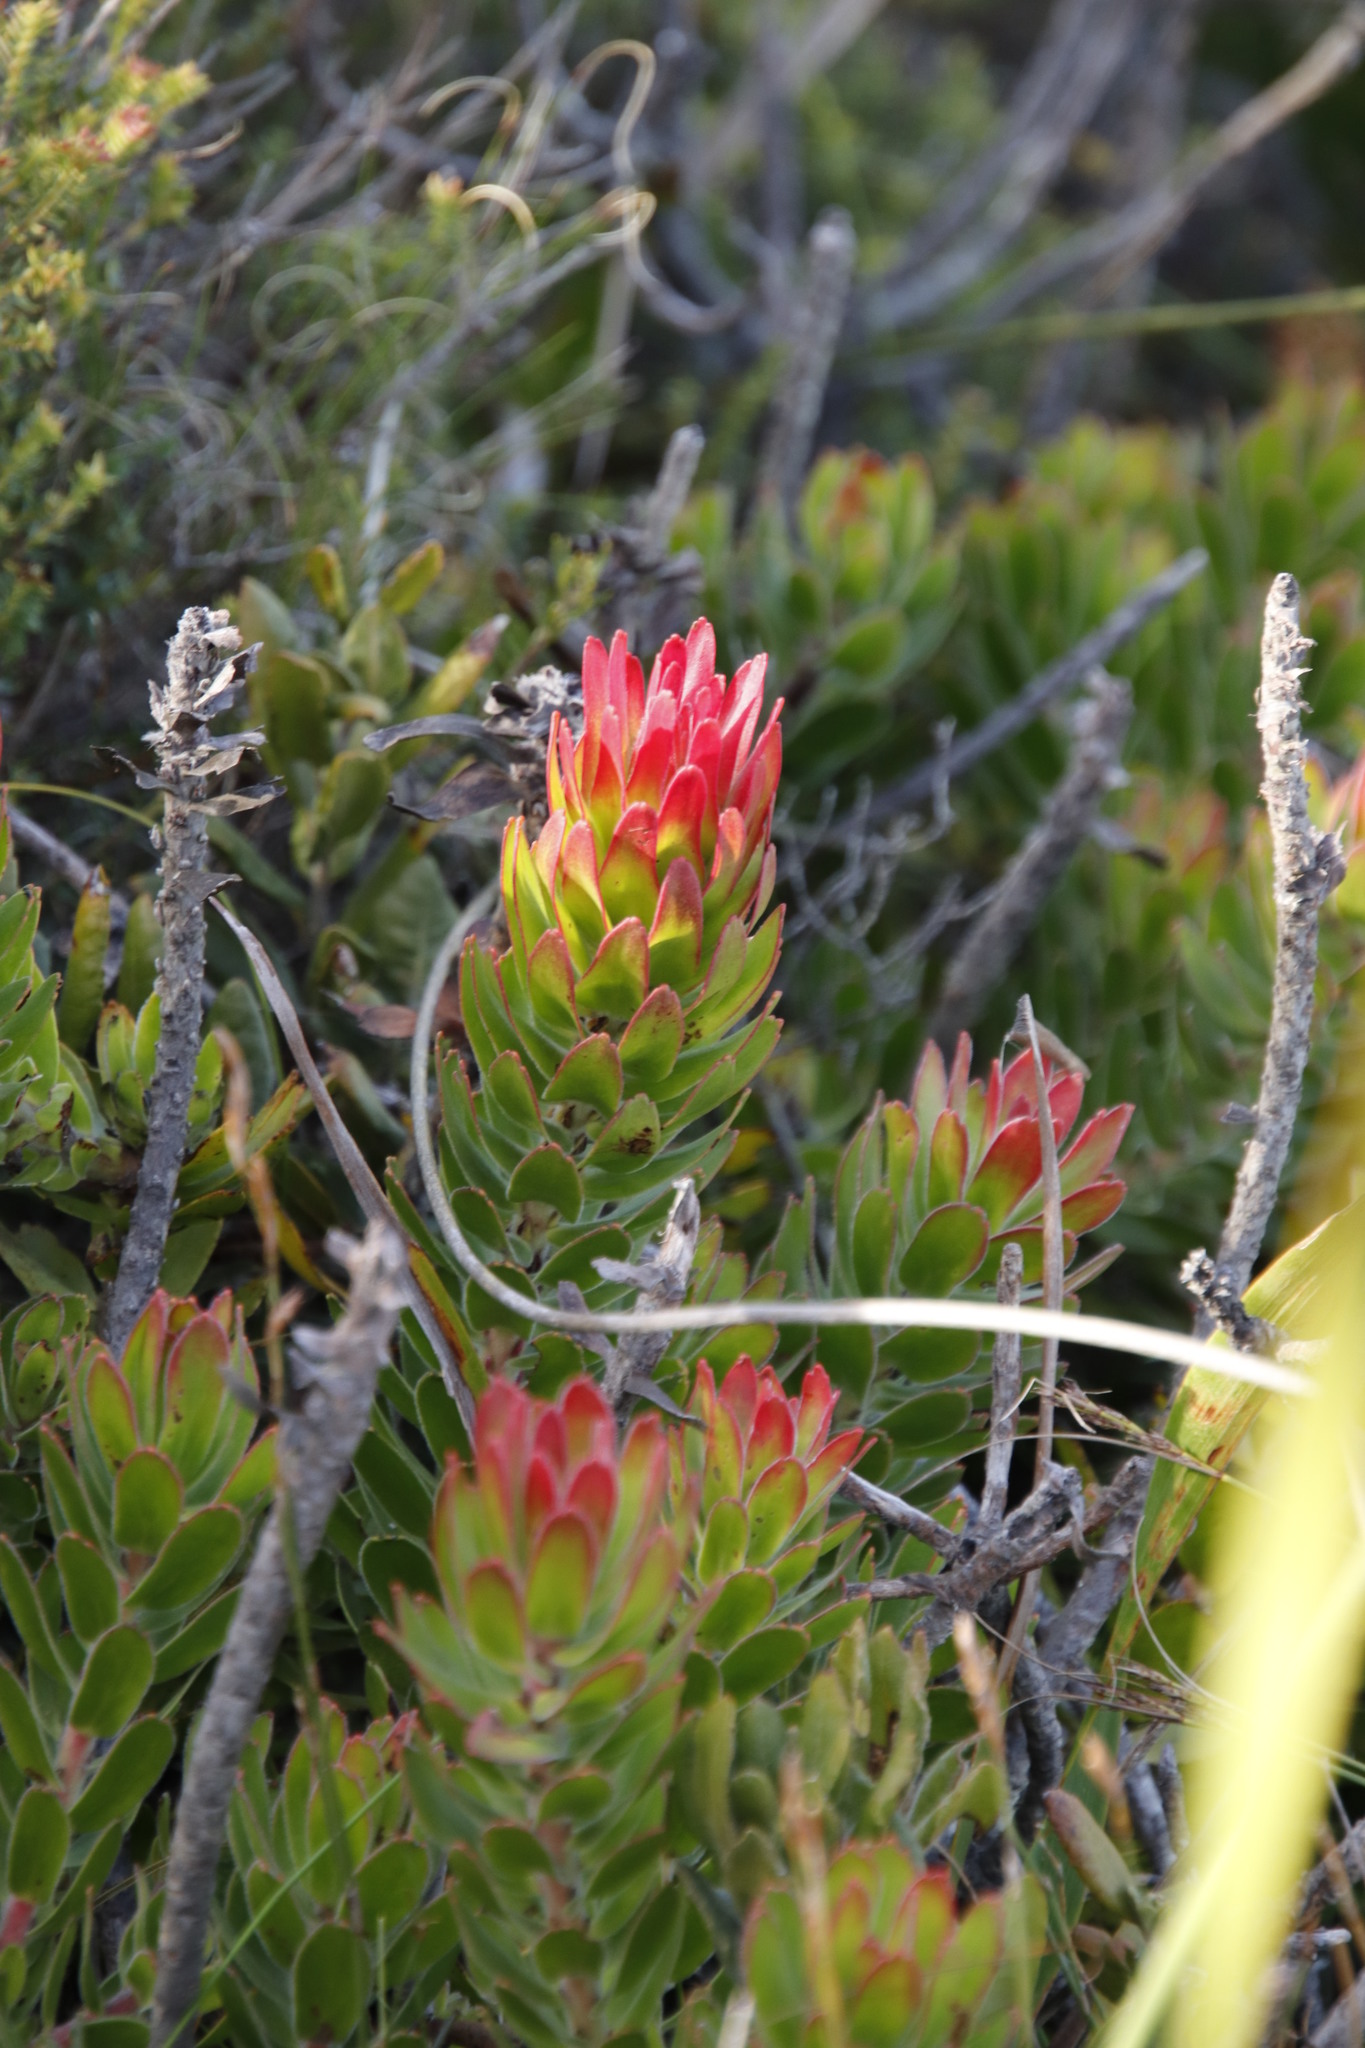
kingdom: Plantae
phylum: Tracheophyta
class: Magnoliopsida
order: Proteales
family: Proteaceae
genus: Mimetes
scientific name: Mimetes cucullatus
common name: Common pagoda
